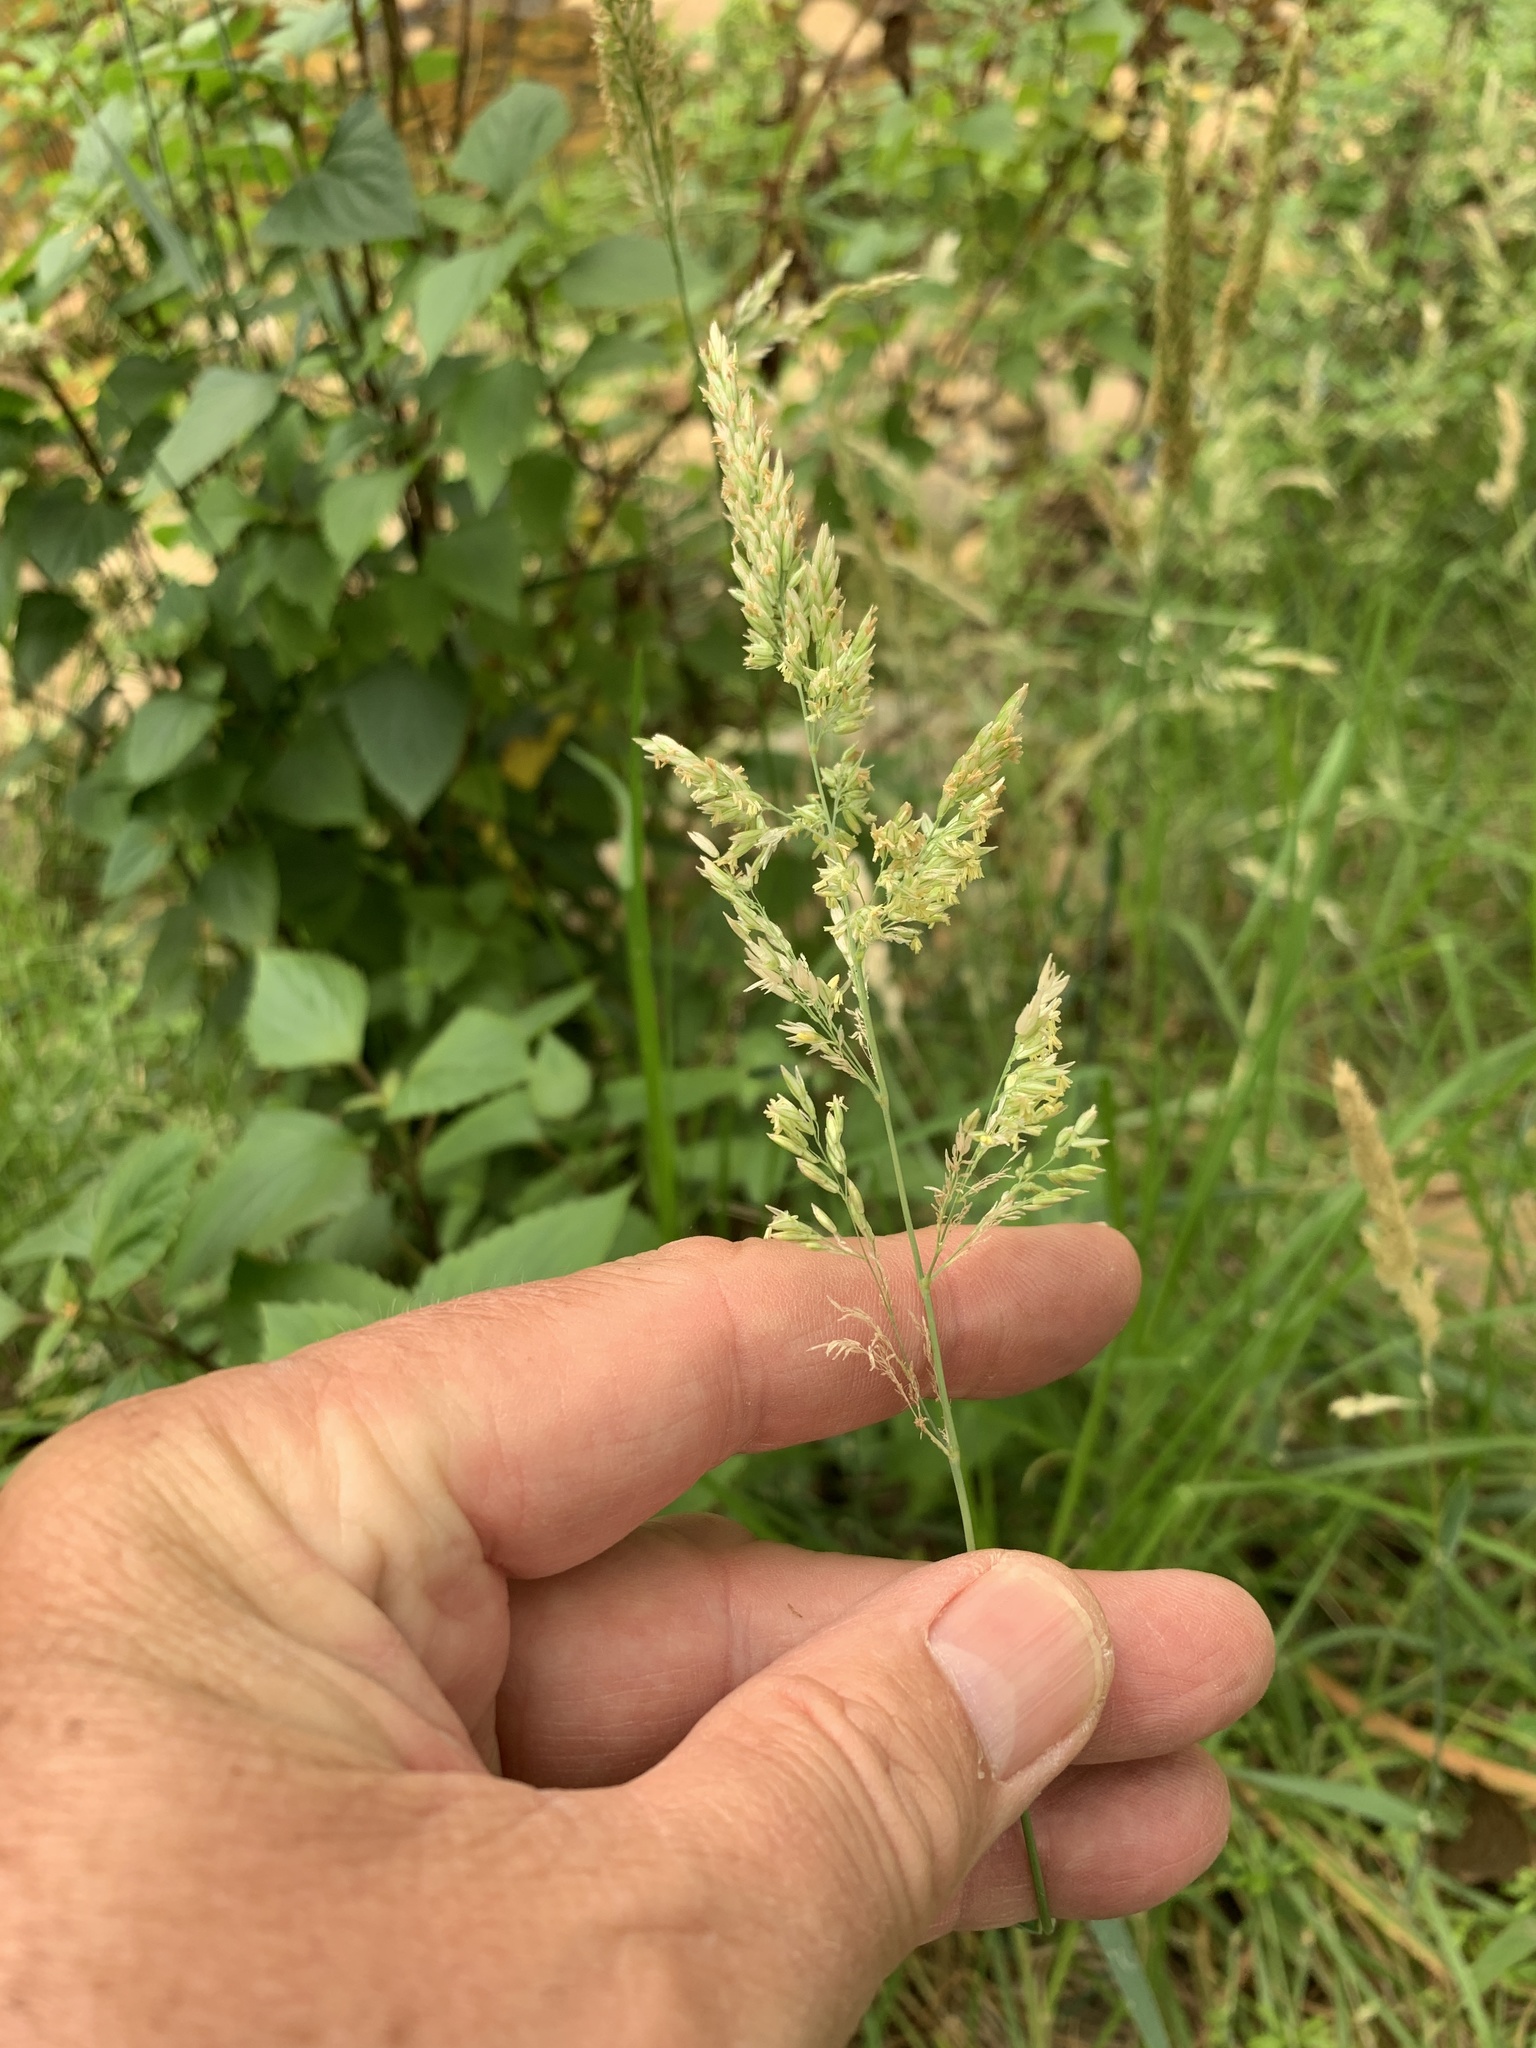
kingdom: Plantae
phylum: Tracheophyta
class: Liliopsida
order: Poales
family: Poaceae
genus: Polypogon
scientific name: Polypogon viridis
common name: Water bent
